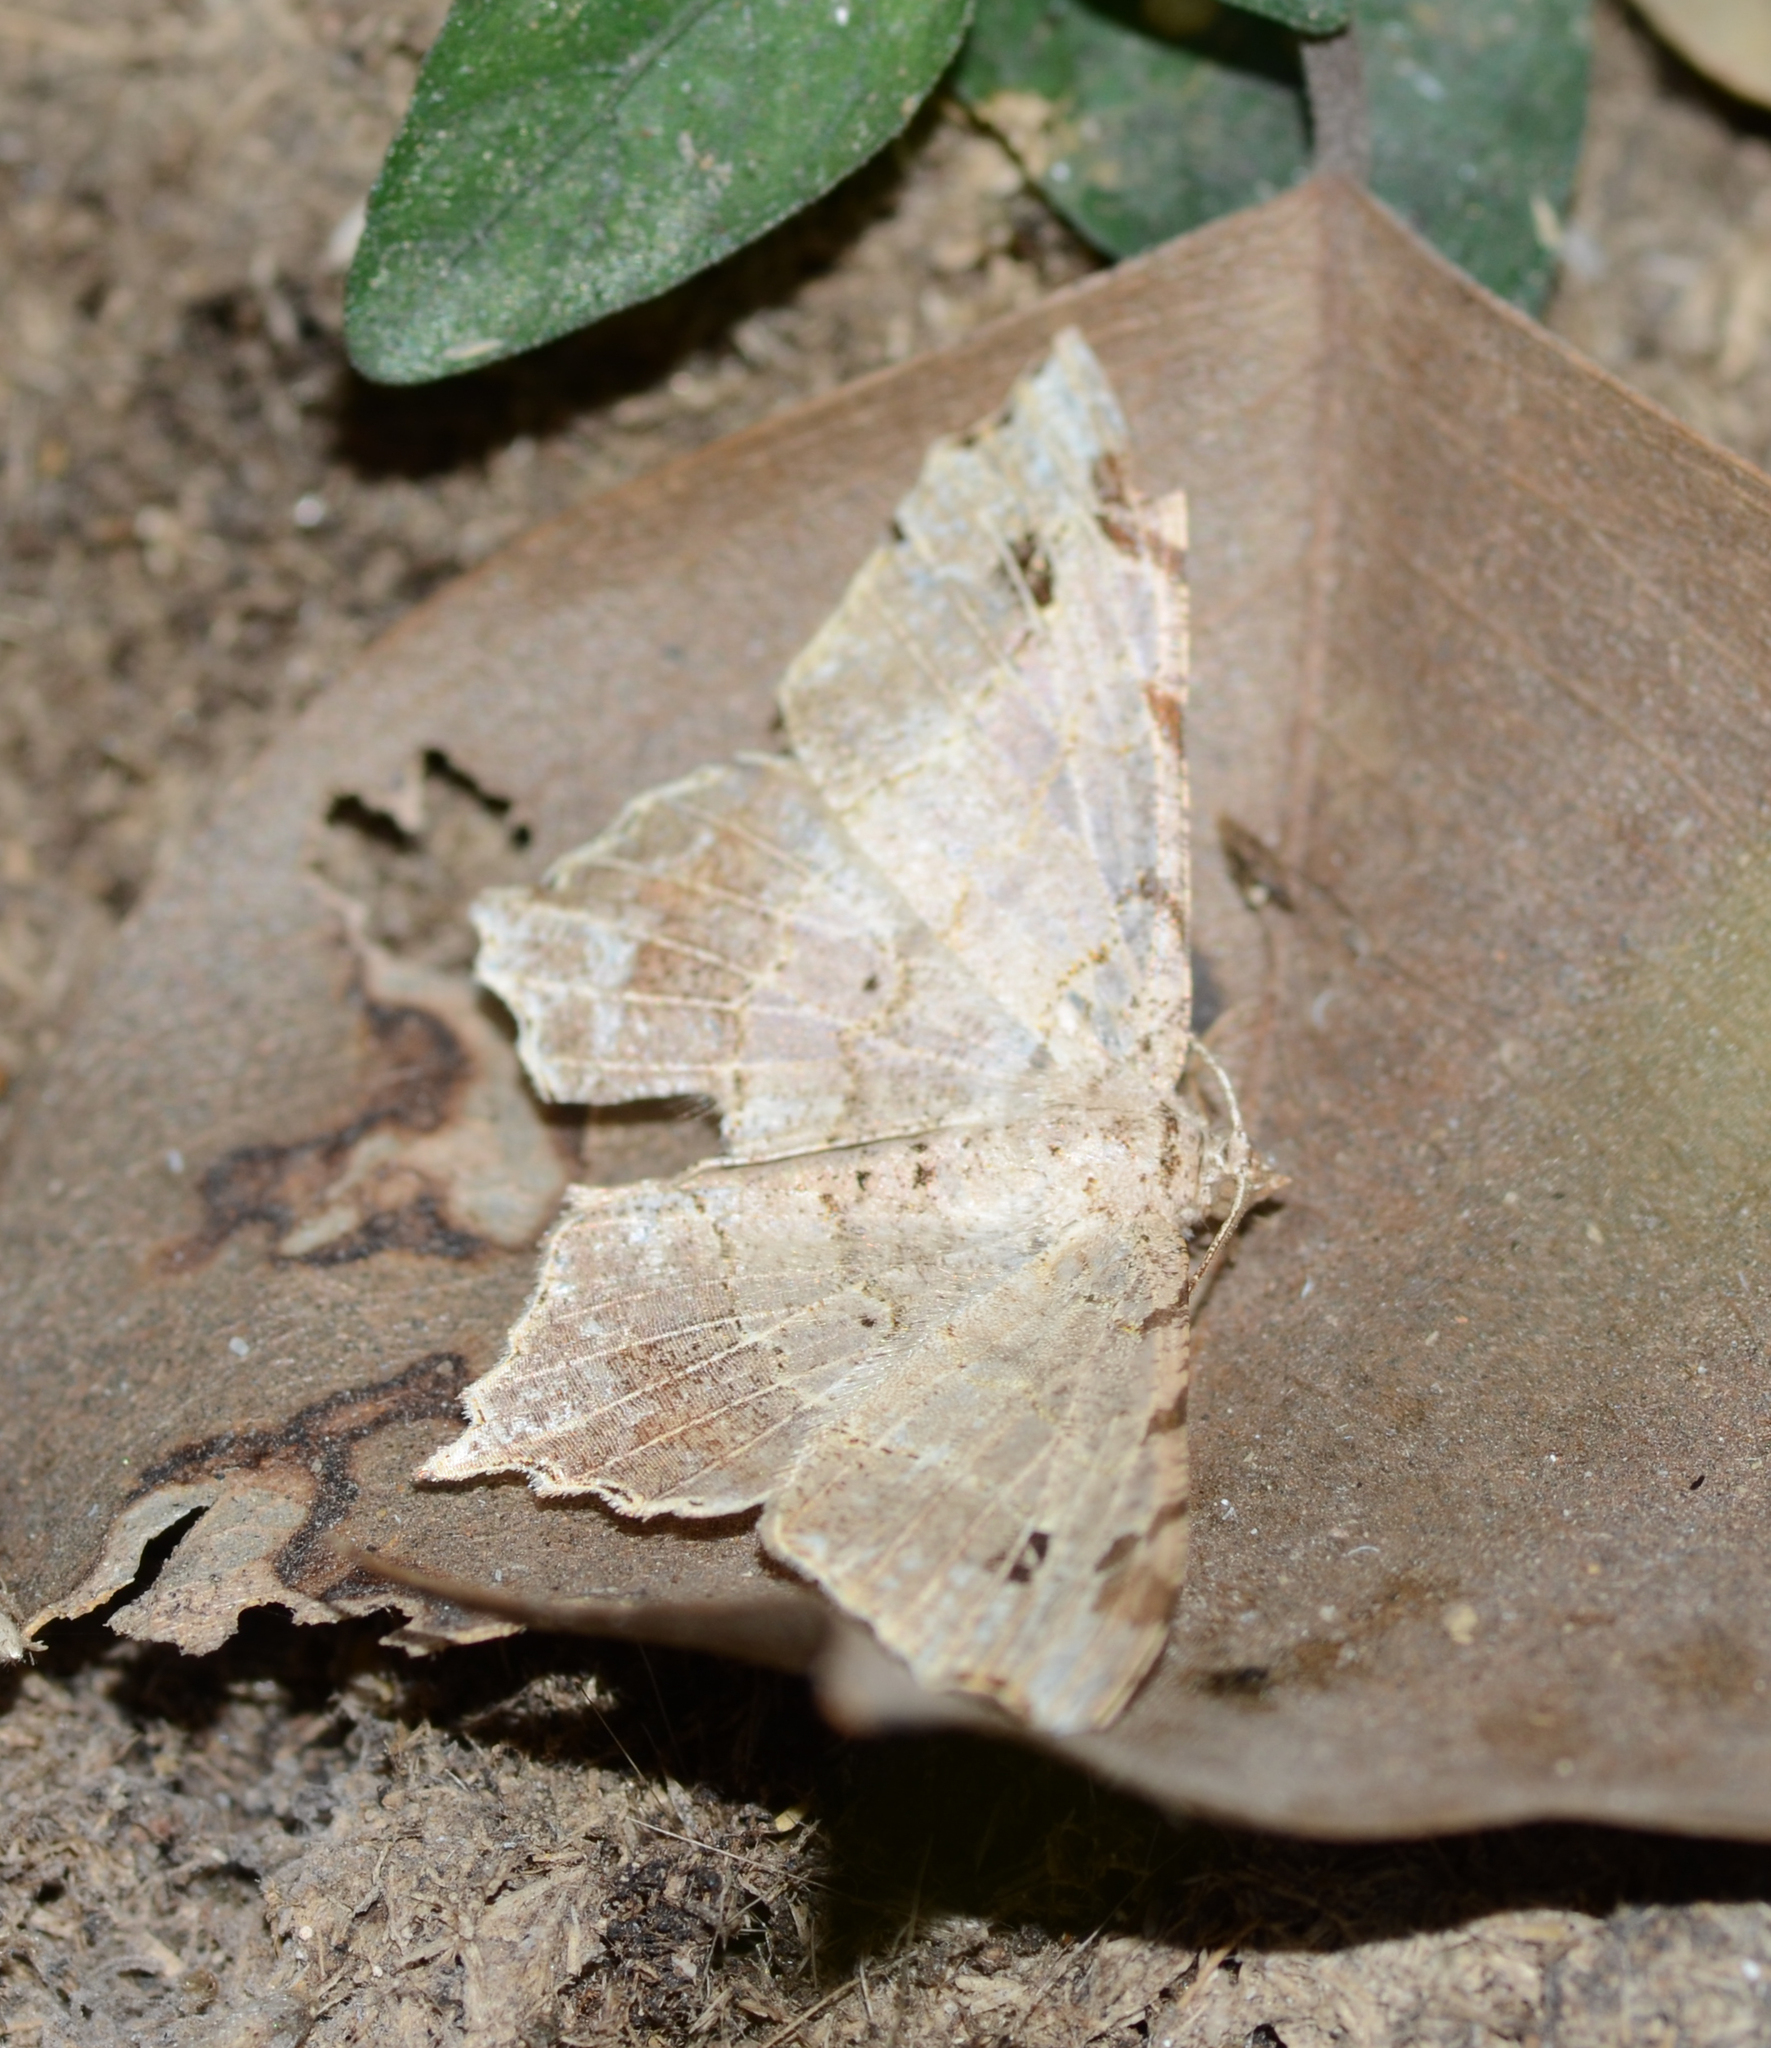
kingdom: Animalia
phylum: Arthropoda
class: Insecta
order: Lepidoptera
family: Geometridae
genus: Chiasmia
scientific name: Chiasmia emersaria
